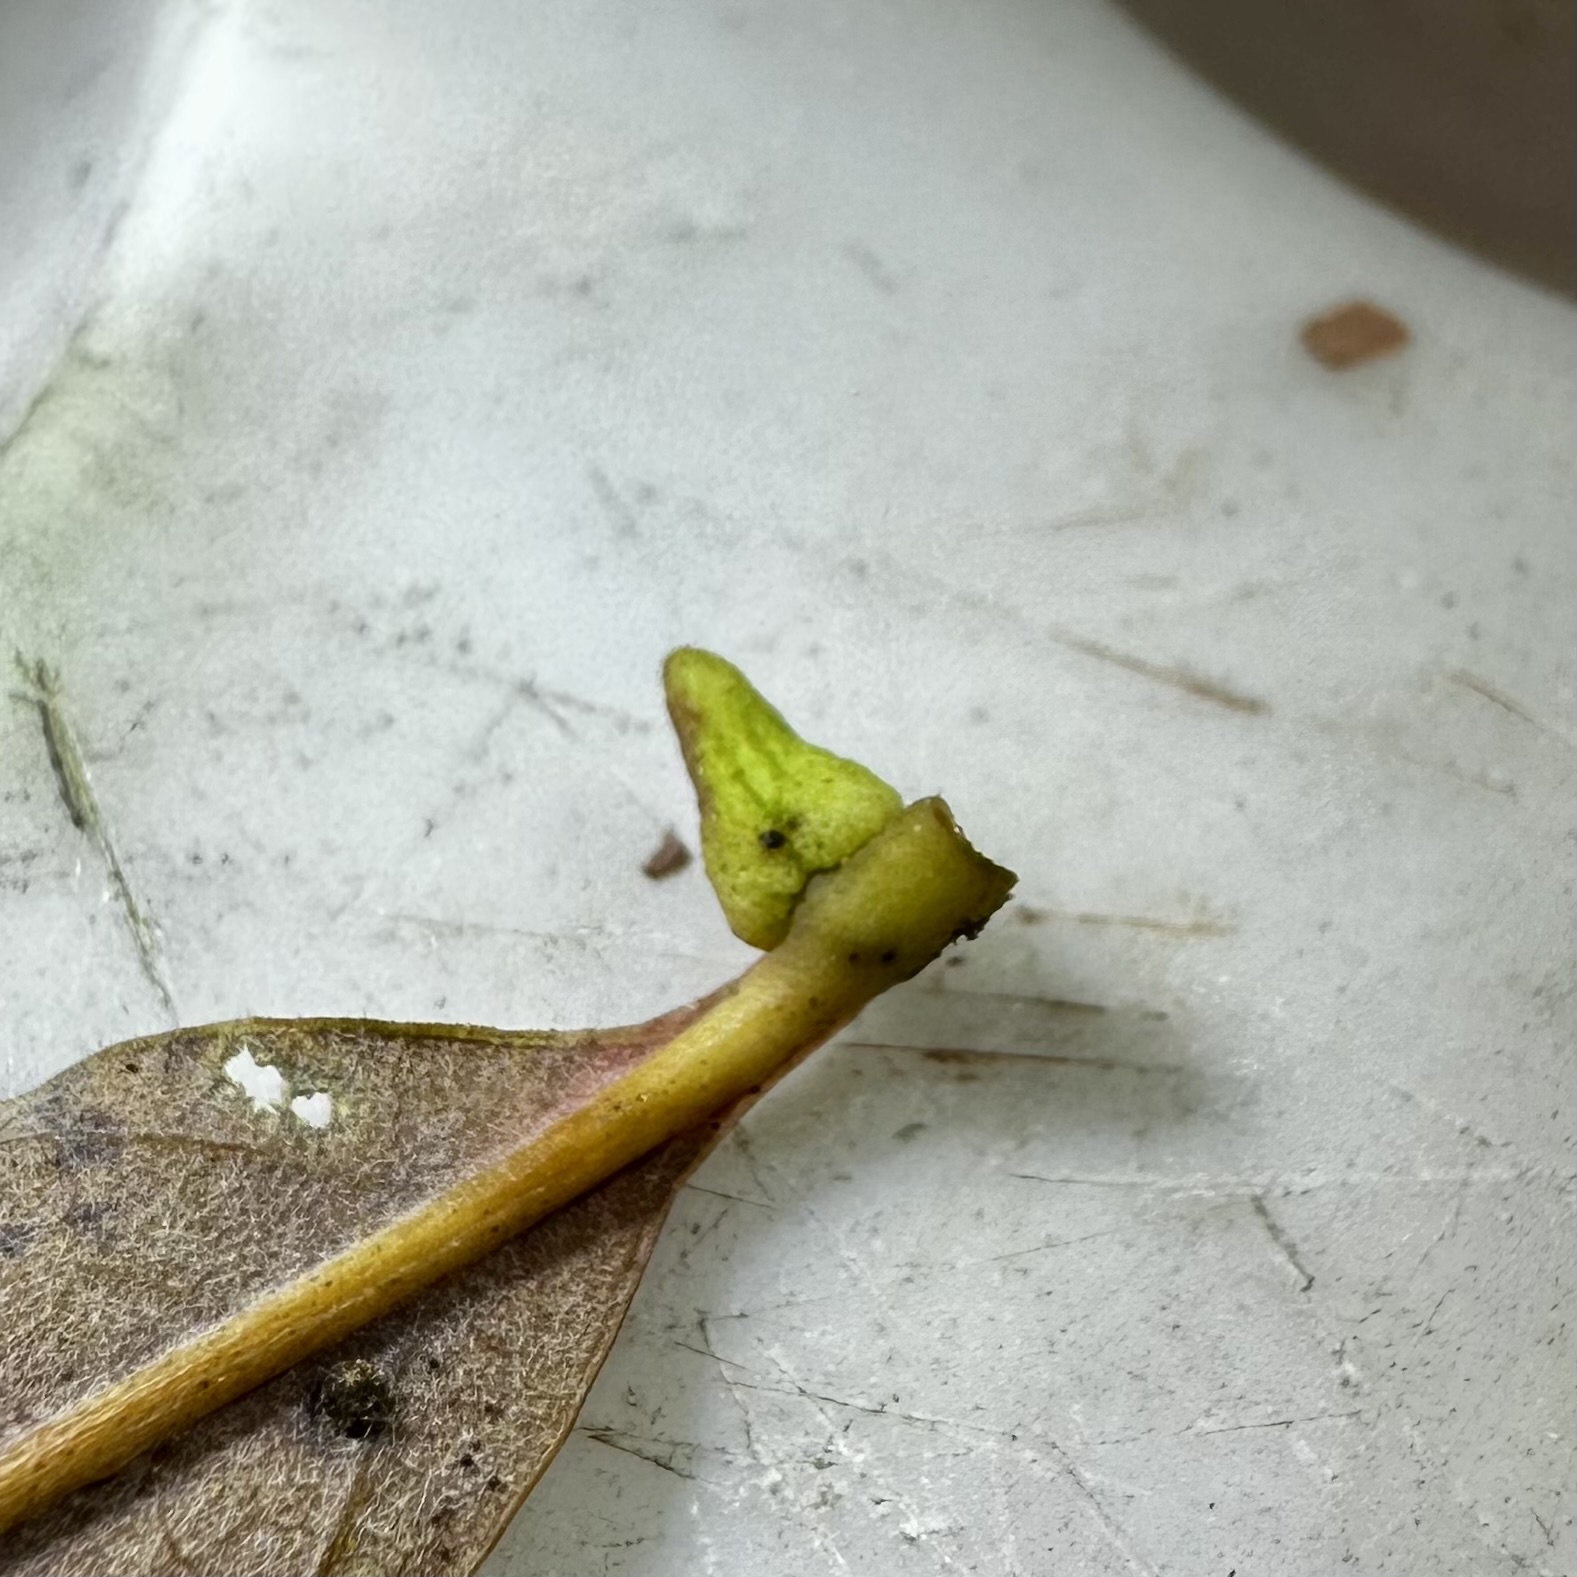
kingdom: Animalia
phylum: Arthropoda
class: Insecta
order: Hymenoptera
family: Cynipidae
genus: Zopheroteras
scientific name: Zopheroteras
